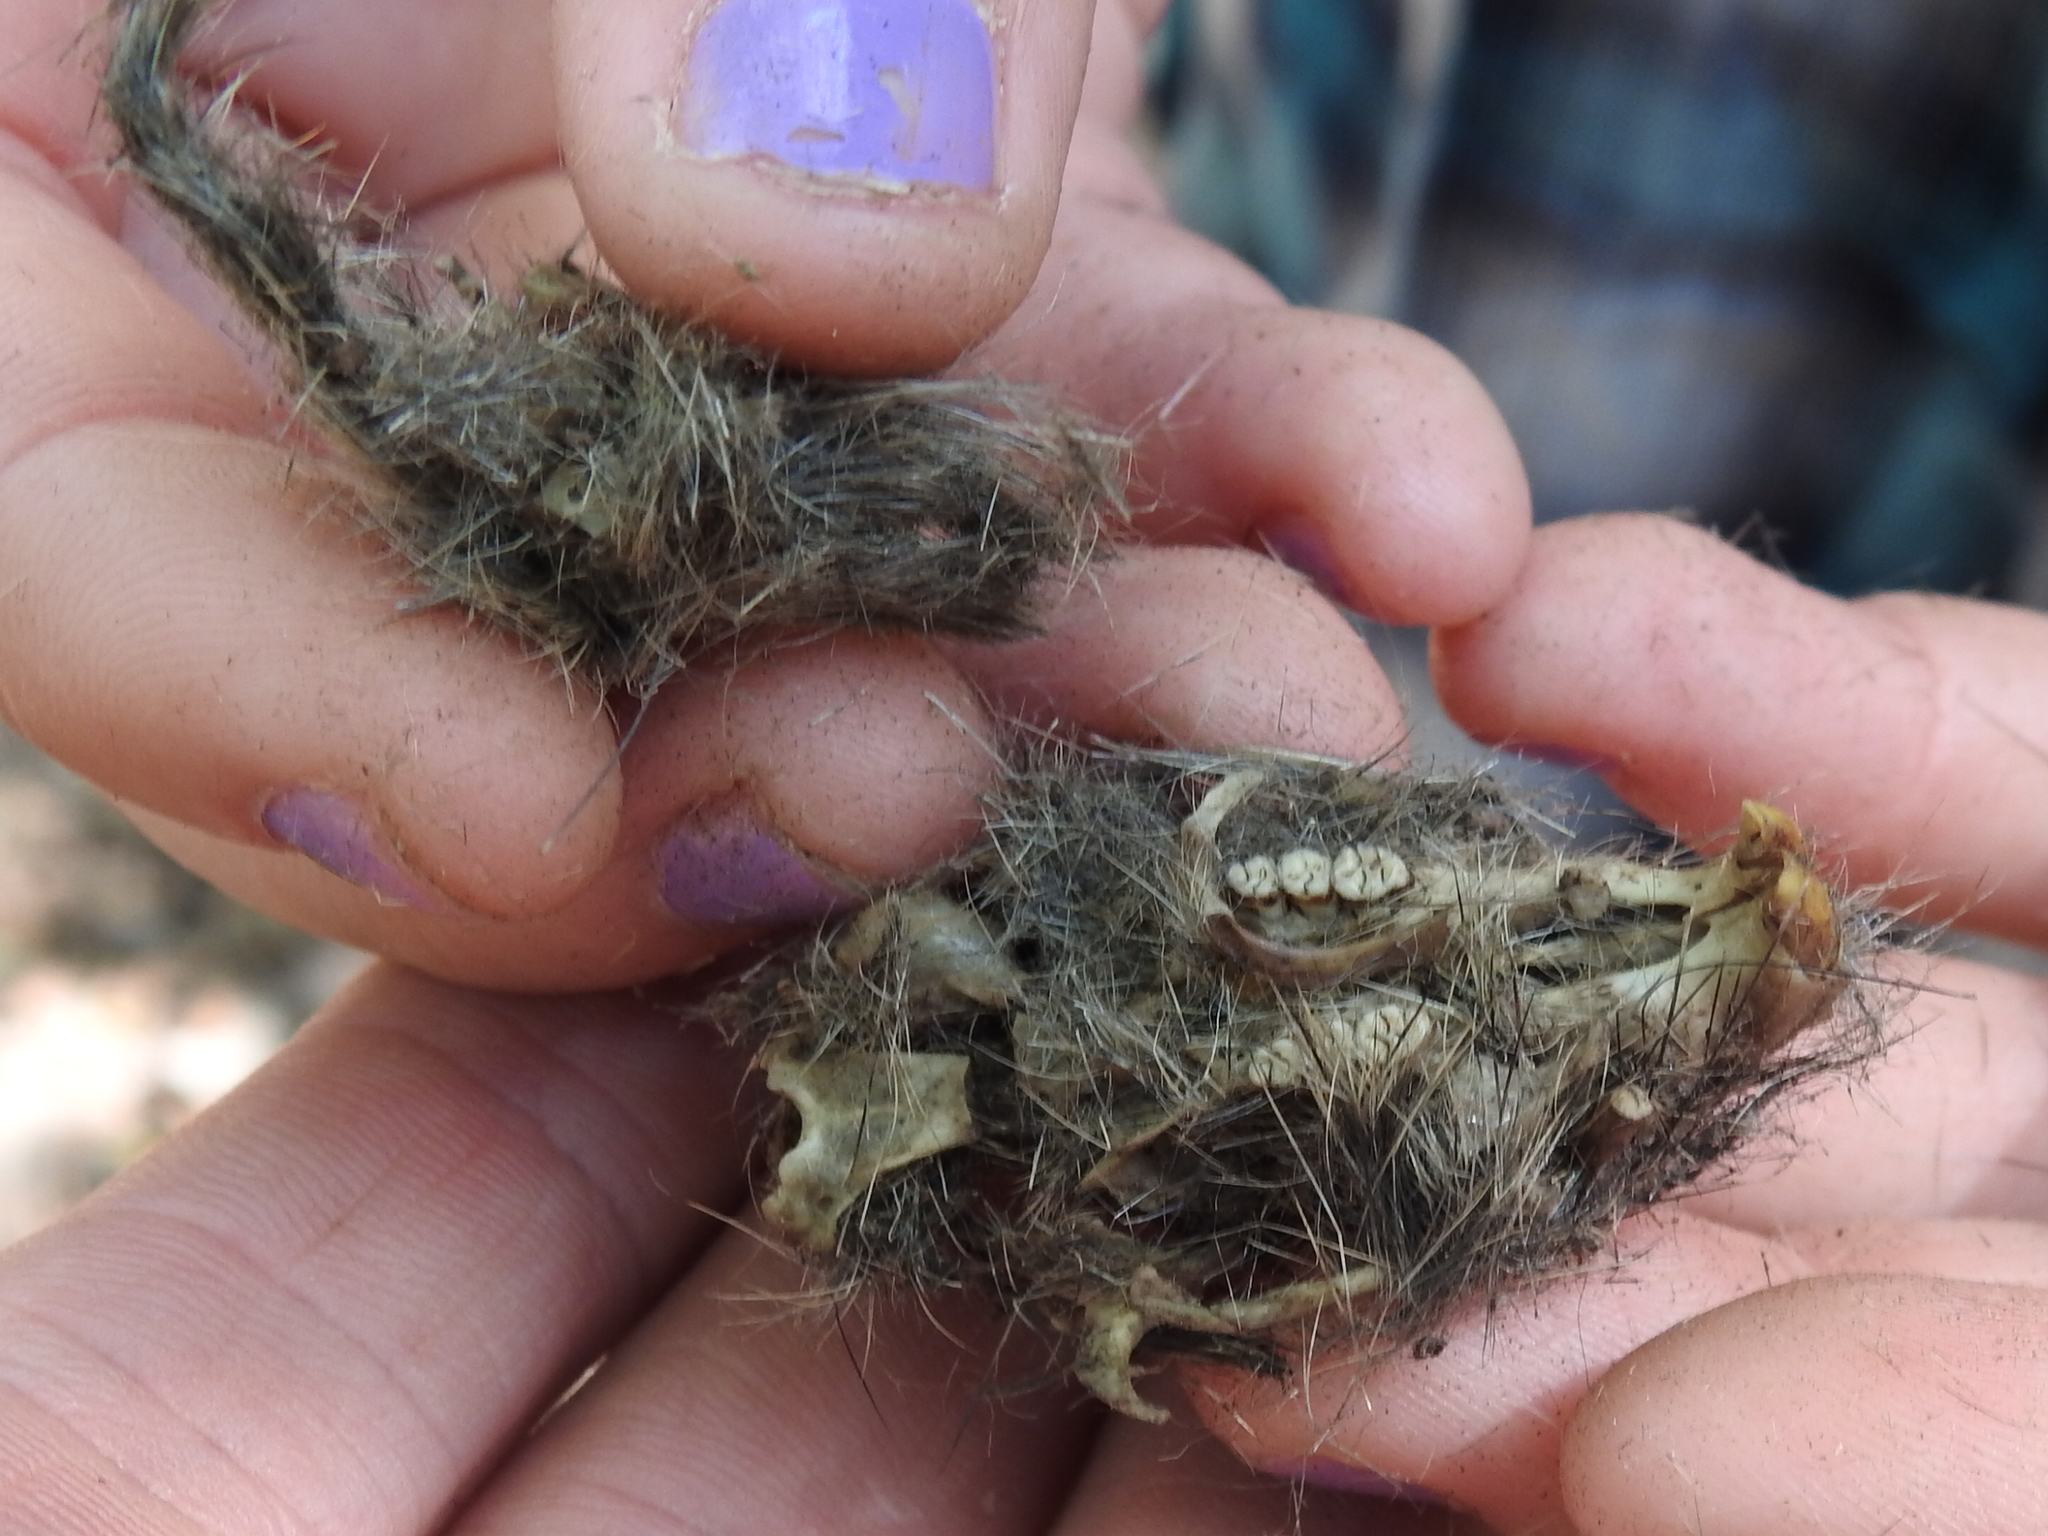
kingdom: Animalia
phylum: Chordata
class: Aves
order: Strigiformes
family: Strigidae
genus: Bubo
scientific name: Bubo virginianus
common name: Great horned owl
